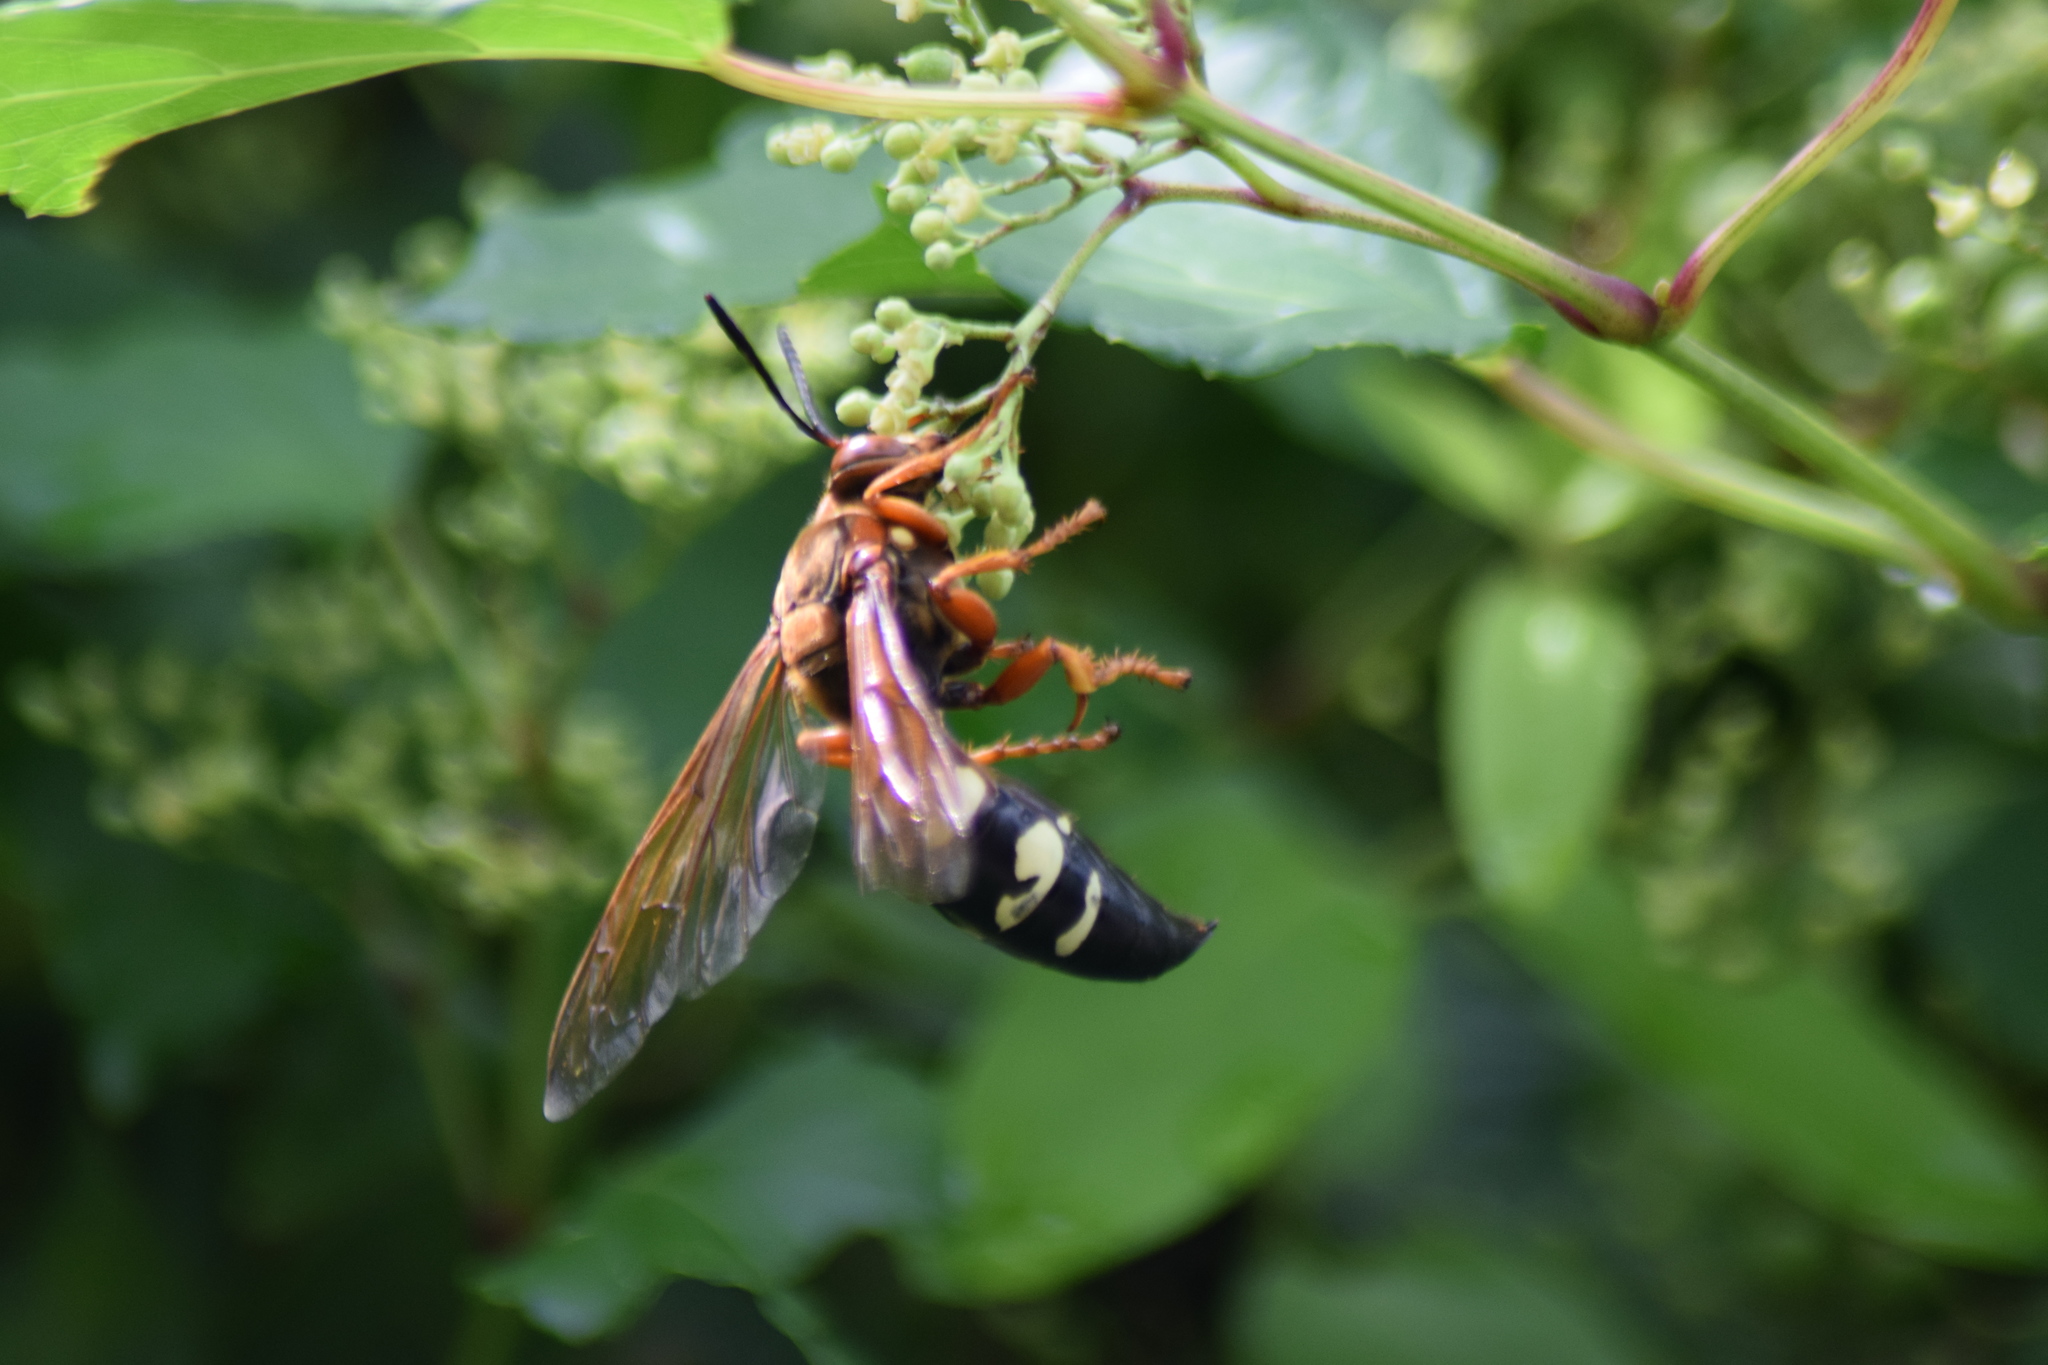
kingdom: Animalia
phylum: Arthropoda
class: Insecta
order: Hymenoptera
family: Crabronidae
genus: Sphecius
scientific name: Sphecius speciosus
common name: Cicada killer
